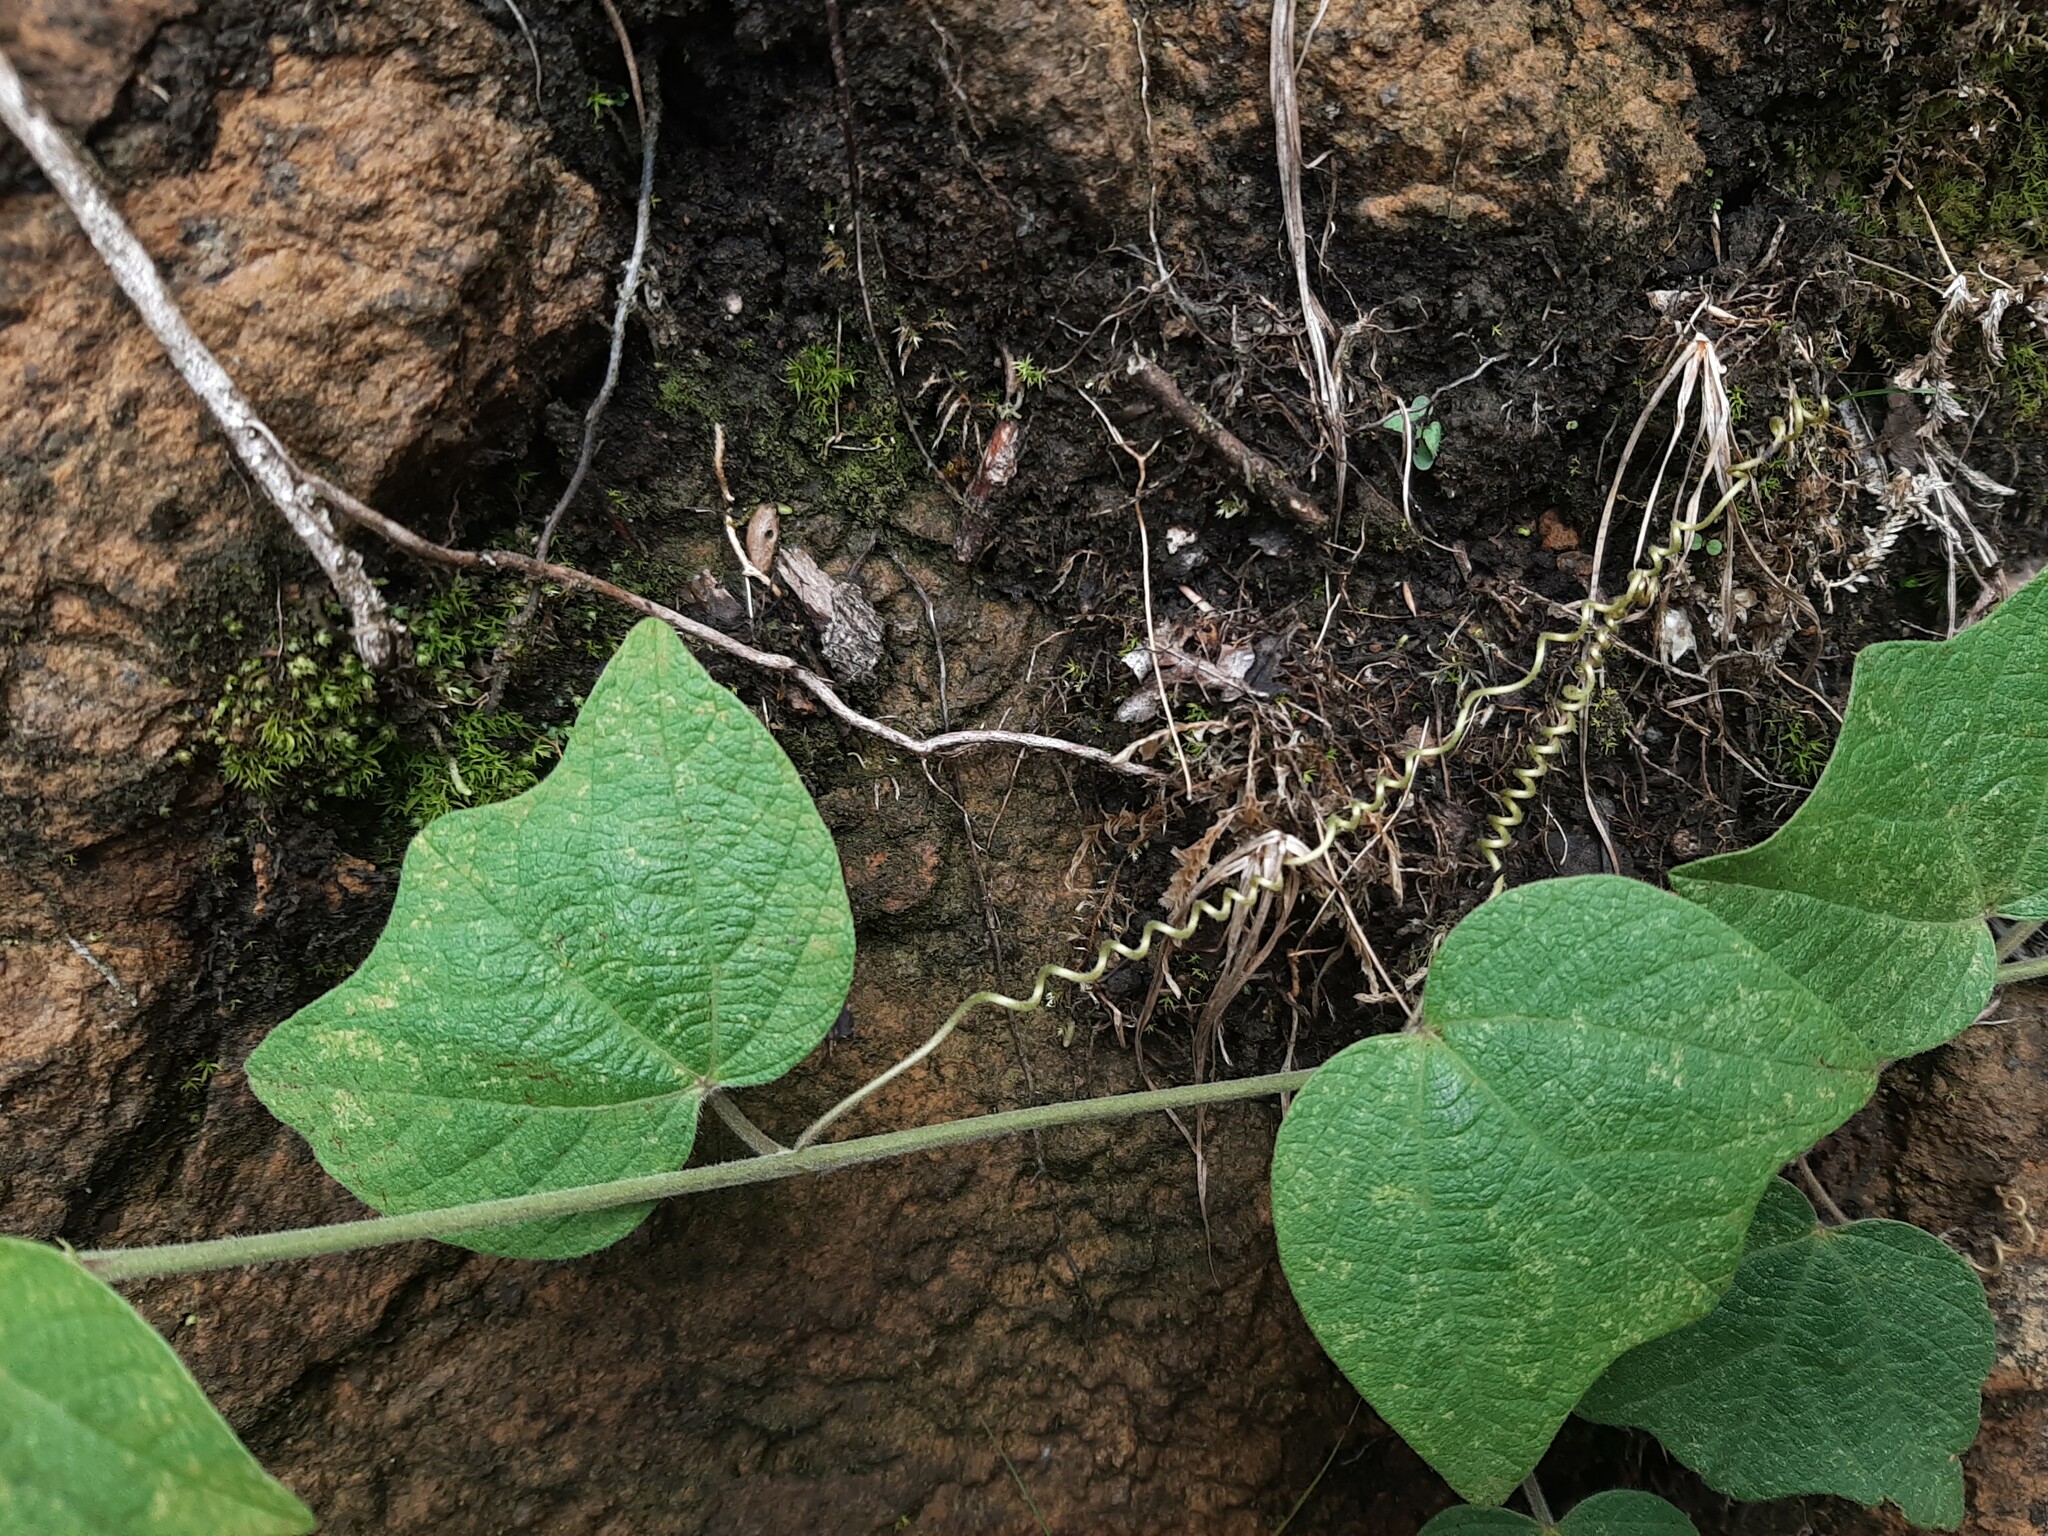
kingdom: Plantae
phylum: Tracheophyta
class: Magnoliopsida
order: Malpighiales
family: Passifloraceae
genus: Passiflora
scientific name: Passiflora sexflora
